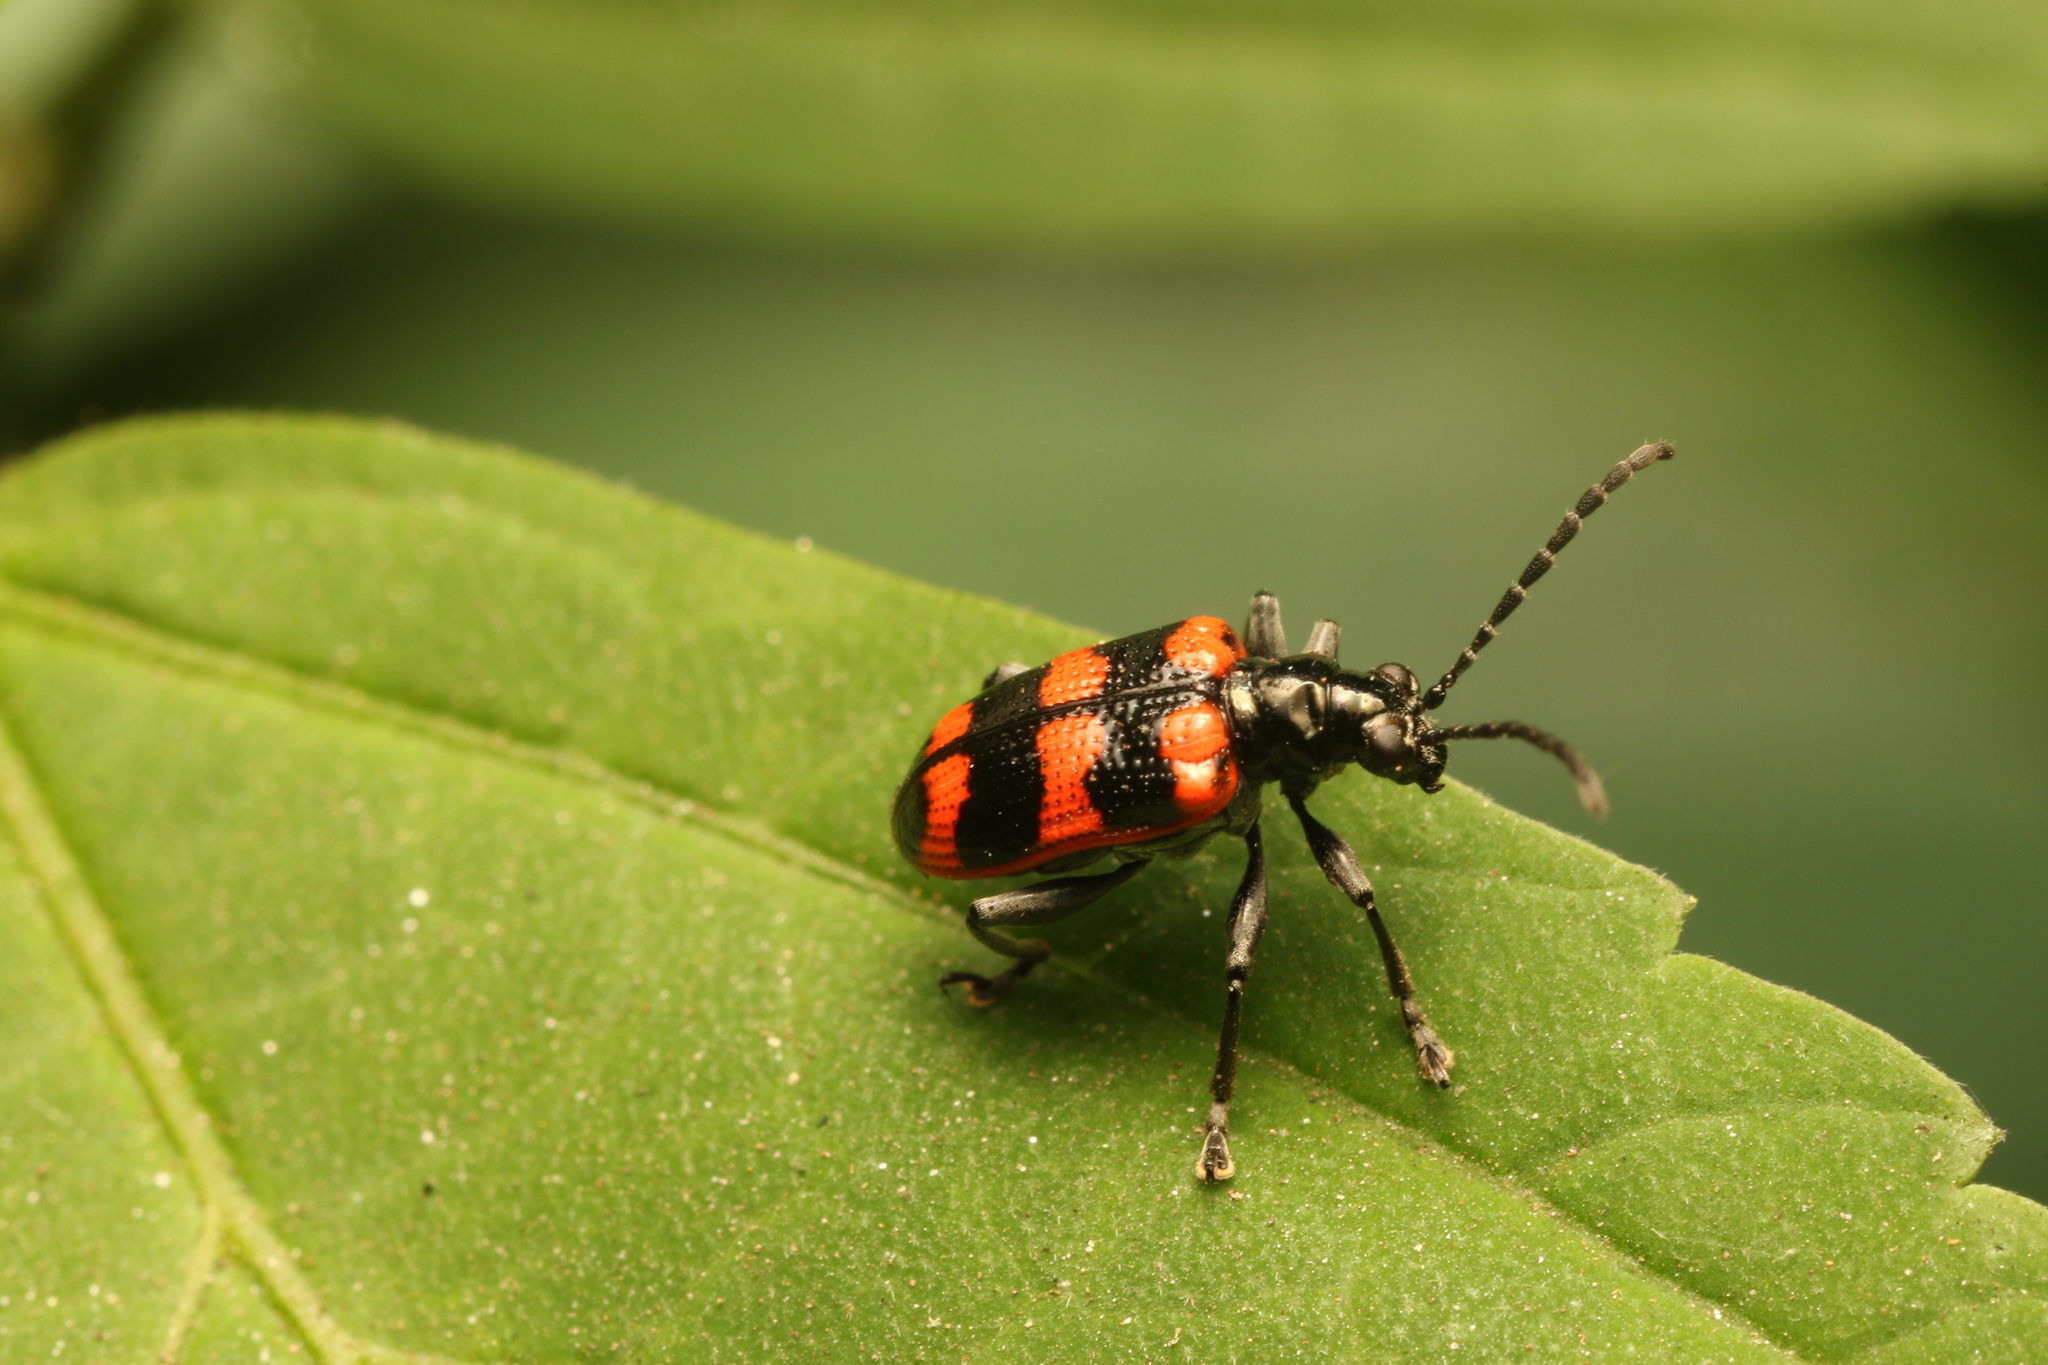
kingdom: Animalia
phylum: Arthropoda
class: Insecta
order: Coleoptera
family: Chrysomelidae
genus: Neolema
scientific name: Neolema
